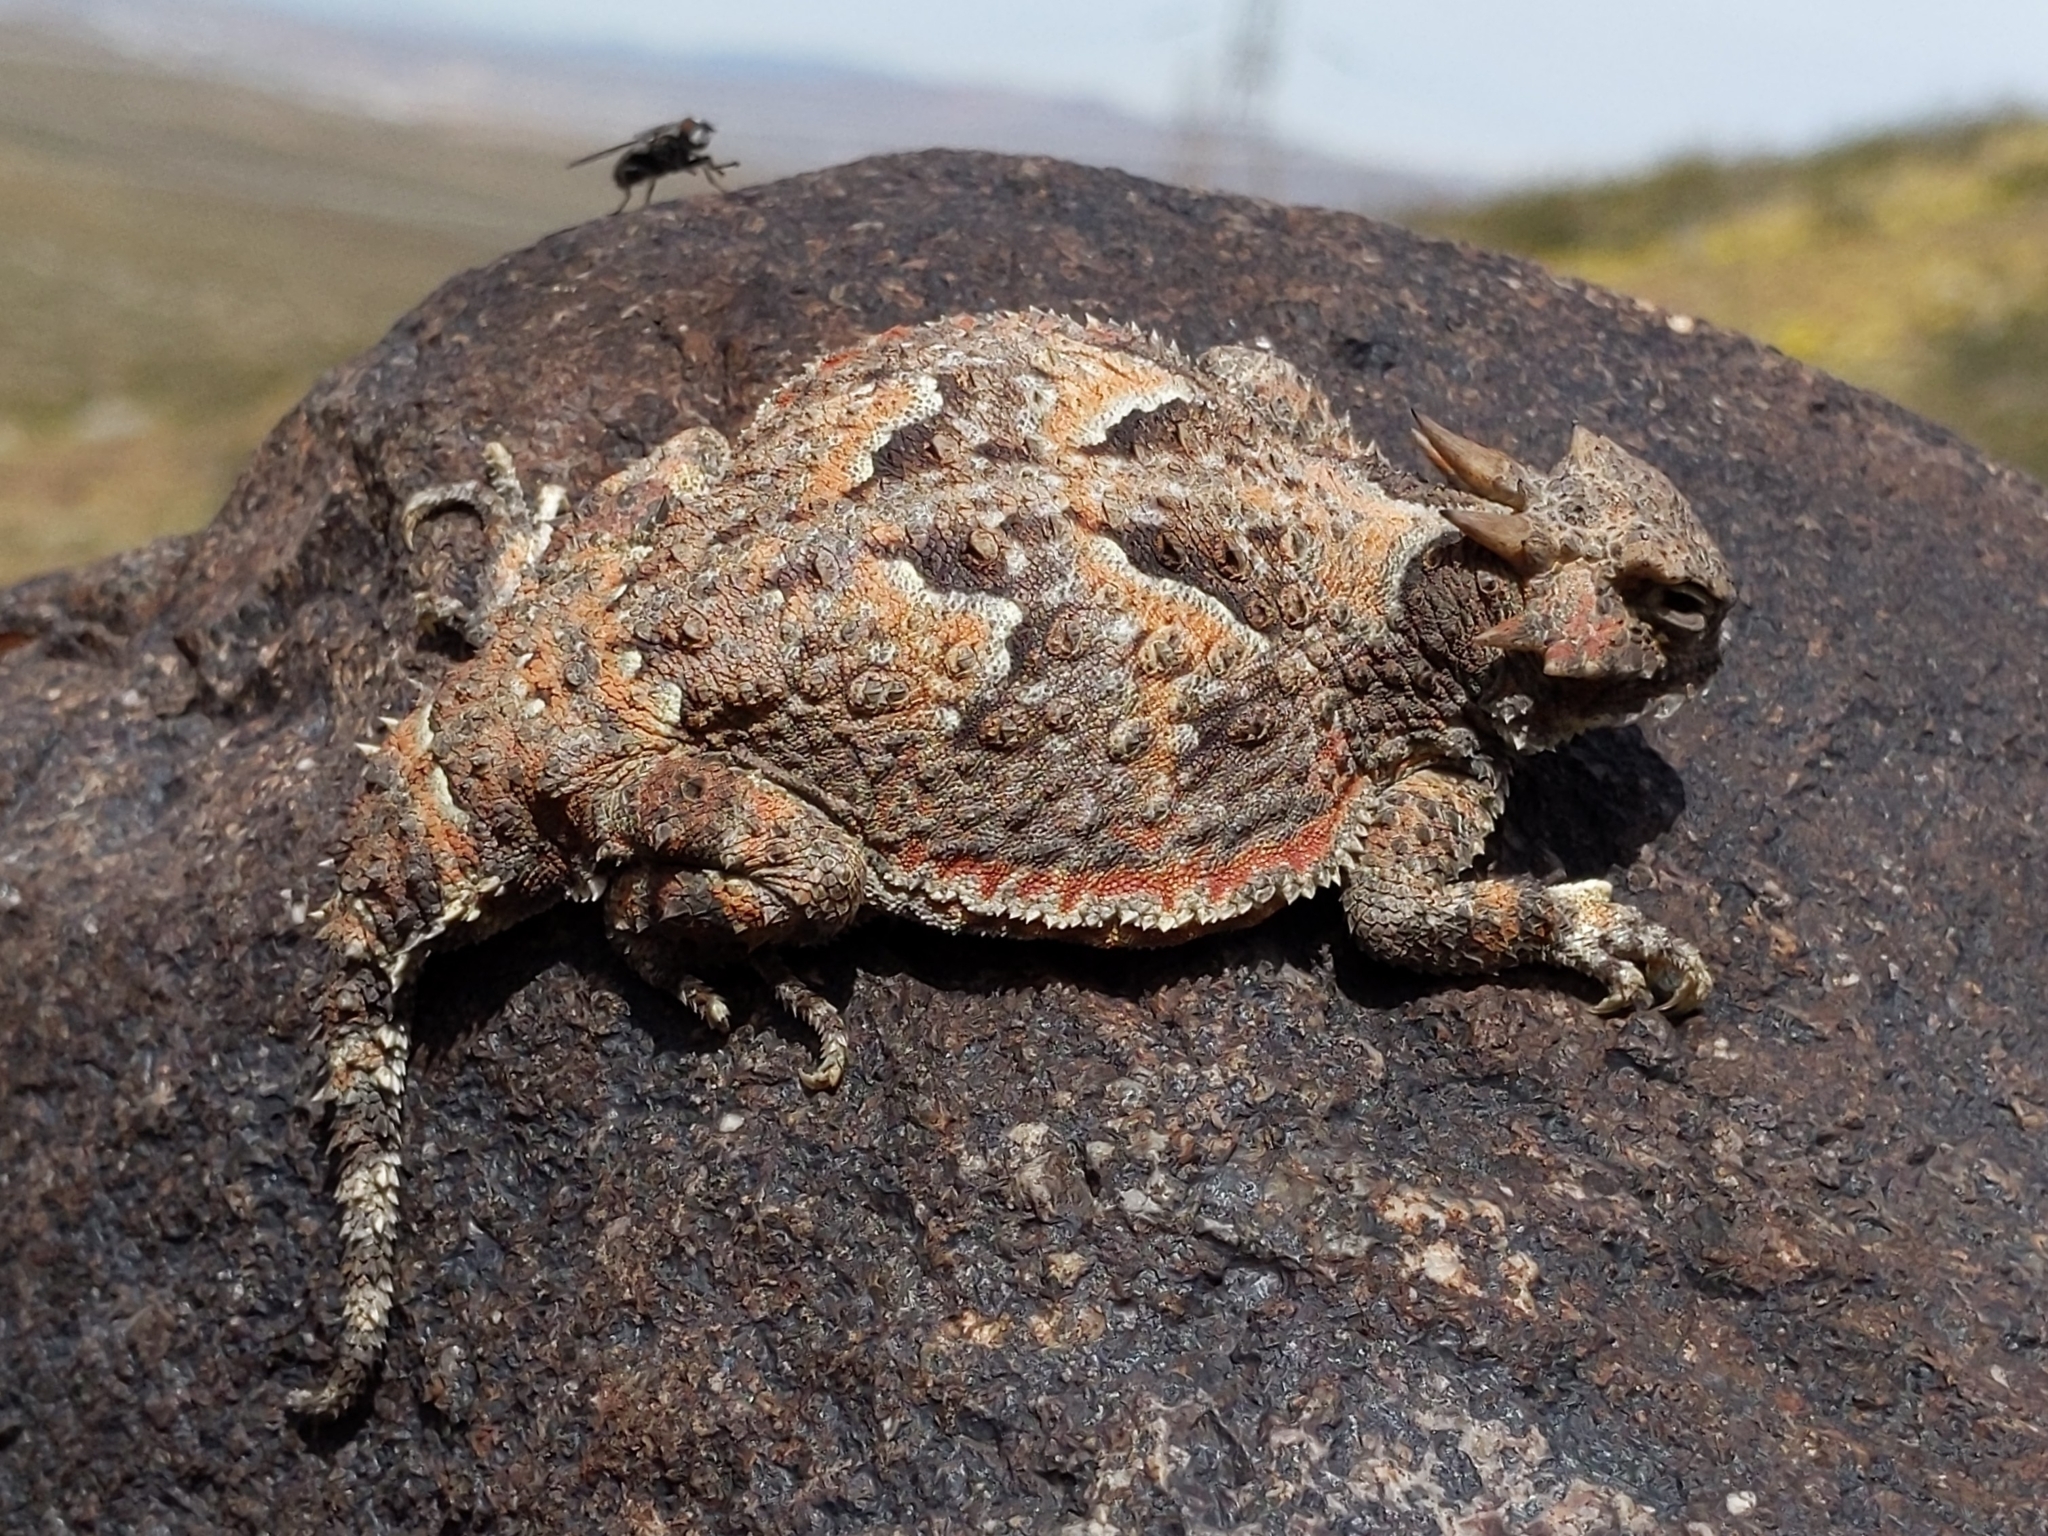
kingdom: Animalia
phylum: Chordata
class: Squamata
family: Phrynosomatidae
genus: Phrynosoma
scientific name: Phrynosoma platyrhinos
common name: Desert horned lizard
